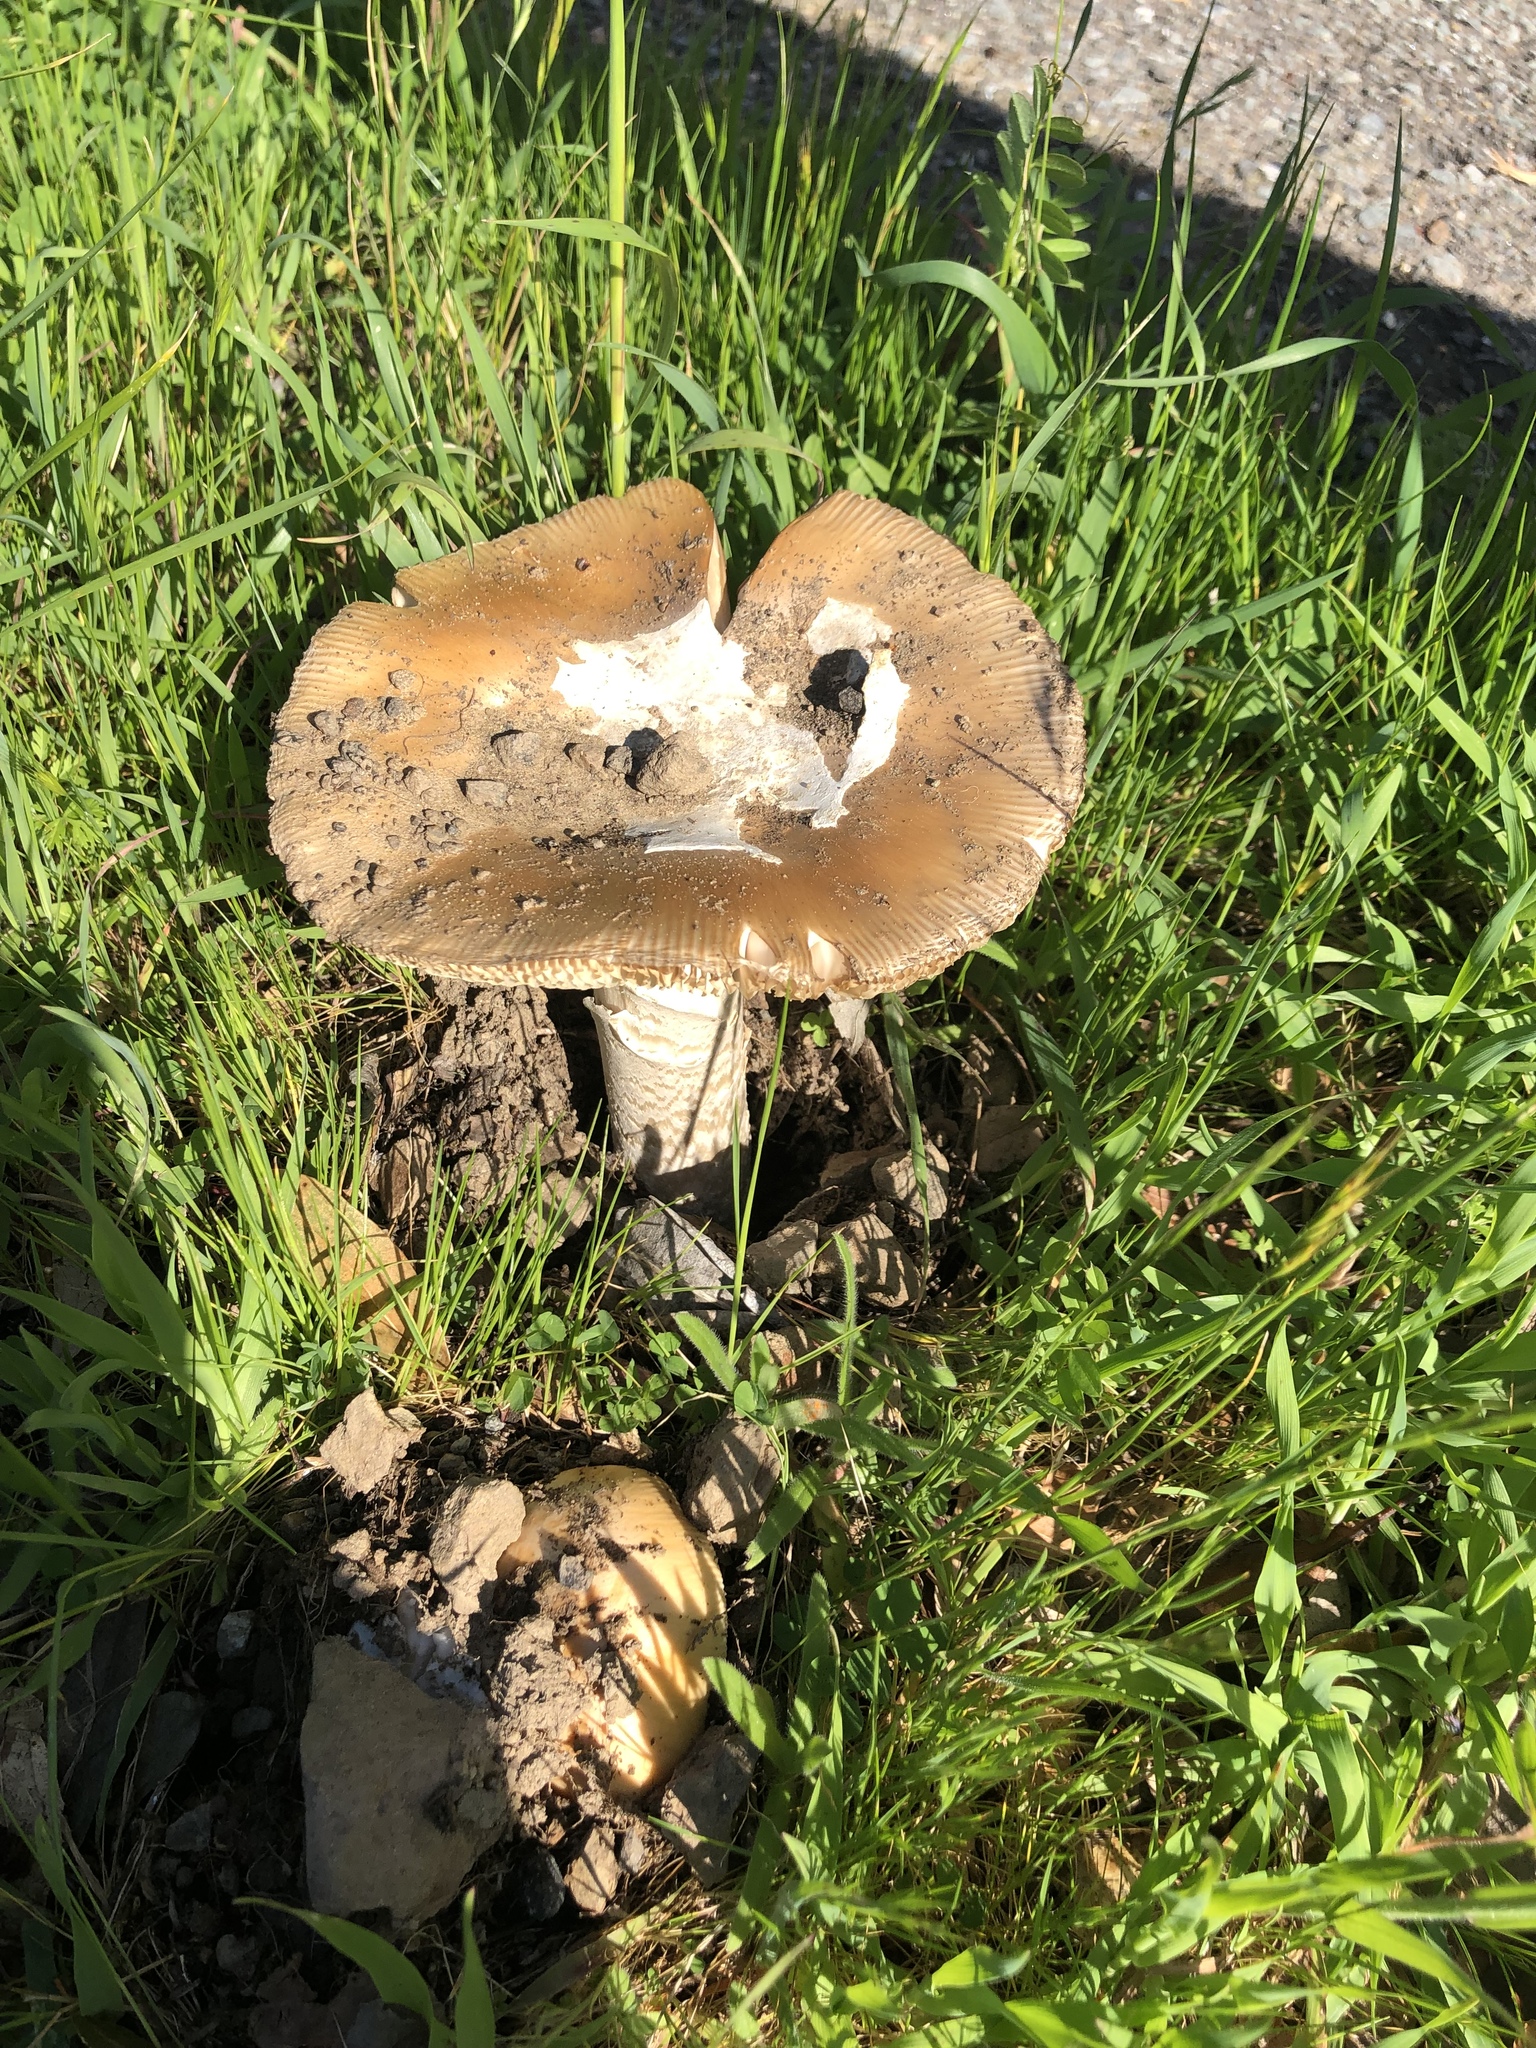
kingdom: Fungi
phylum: Basidiomycota
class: Agaricomycetes
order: Agaricales
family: Amanitaceae
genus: Amanita
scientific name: Amanita velosa
